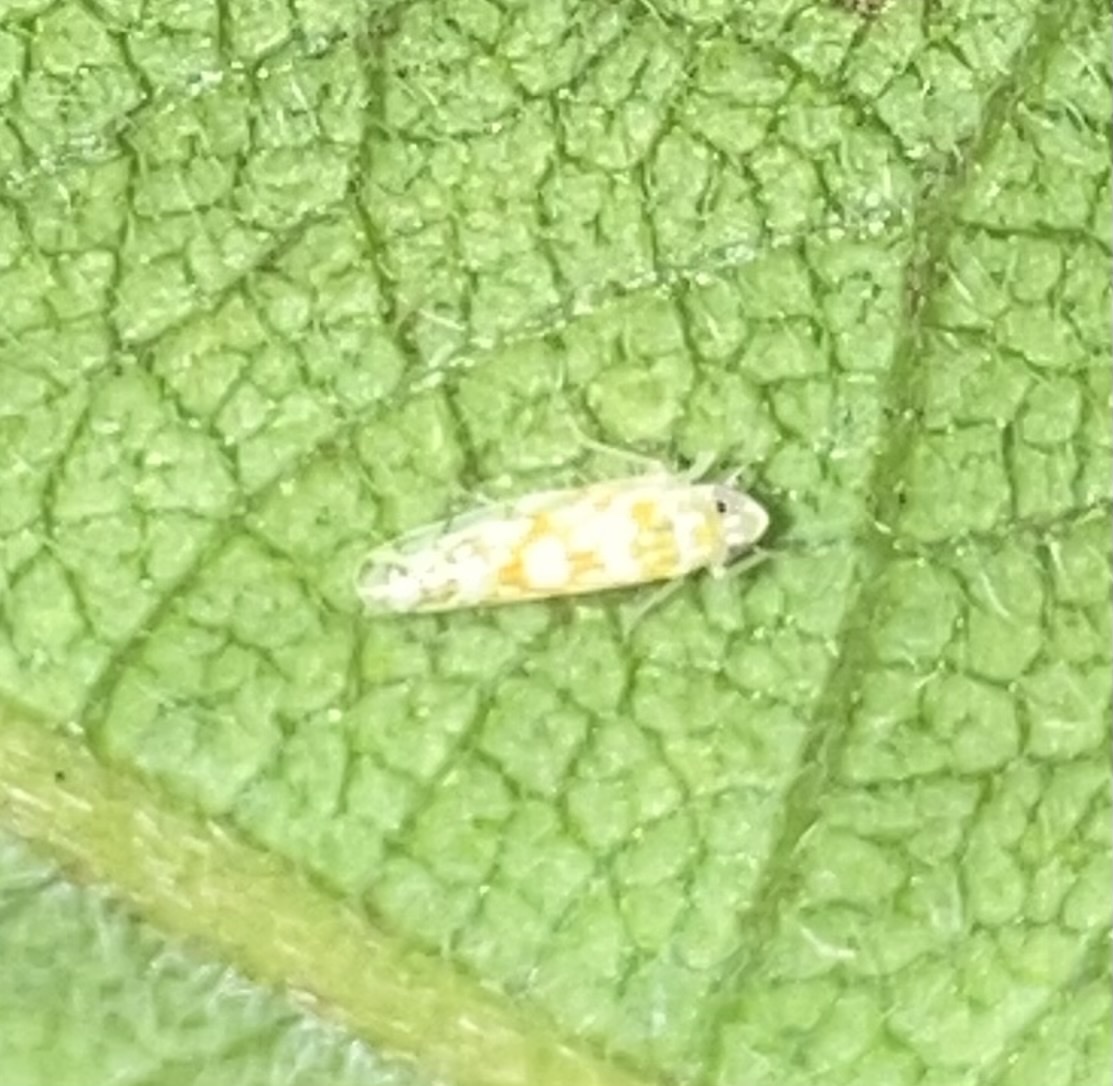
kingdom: Animalia
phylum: Arthropoda
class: Insecta
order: Hemiptera
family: Cicadellidae
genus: Protalebra
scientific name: Protalebra nexa
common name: Leafhopper
